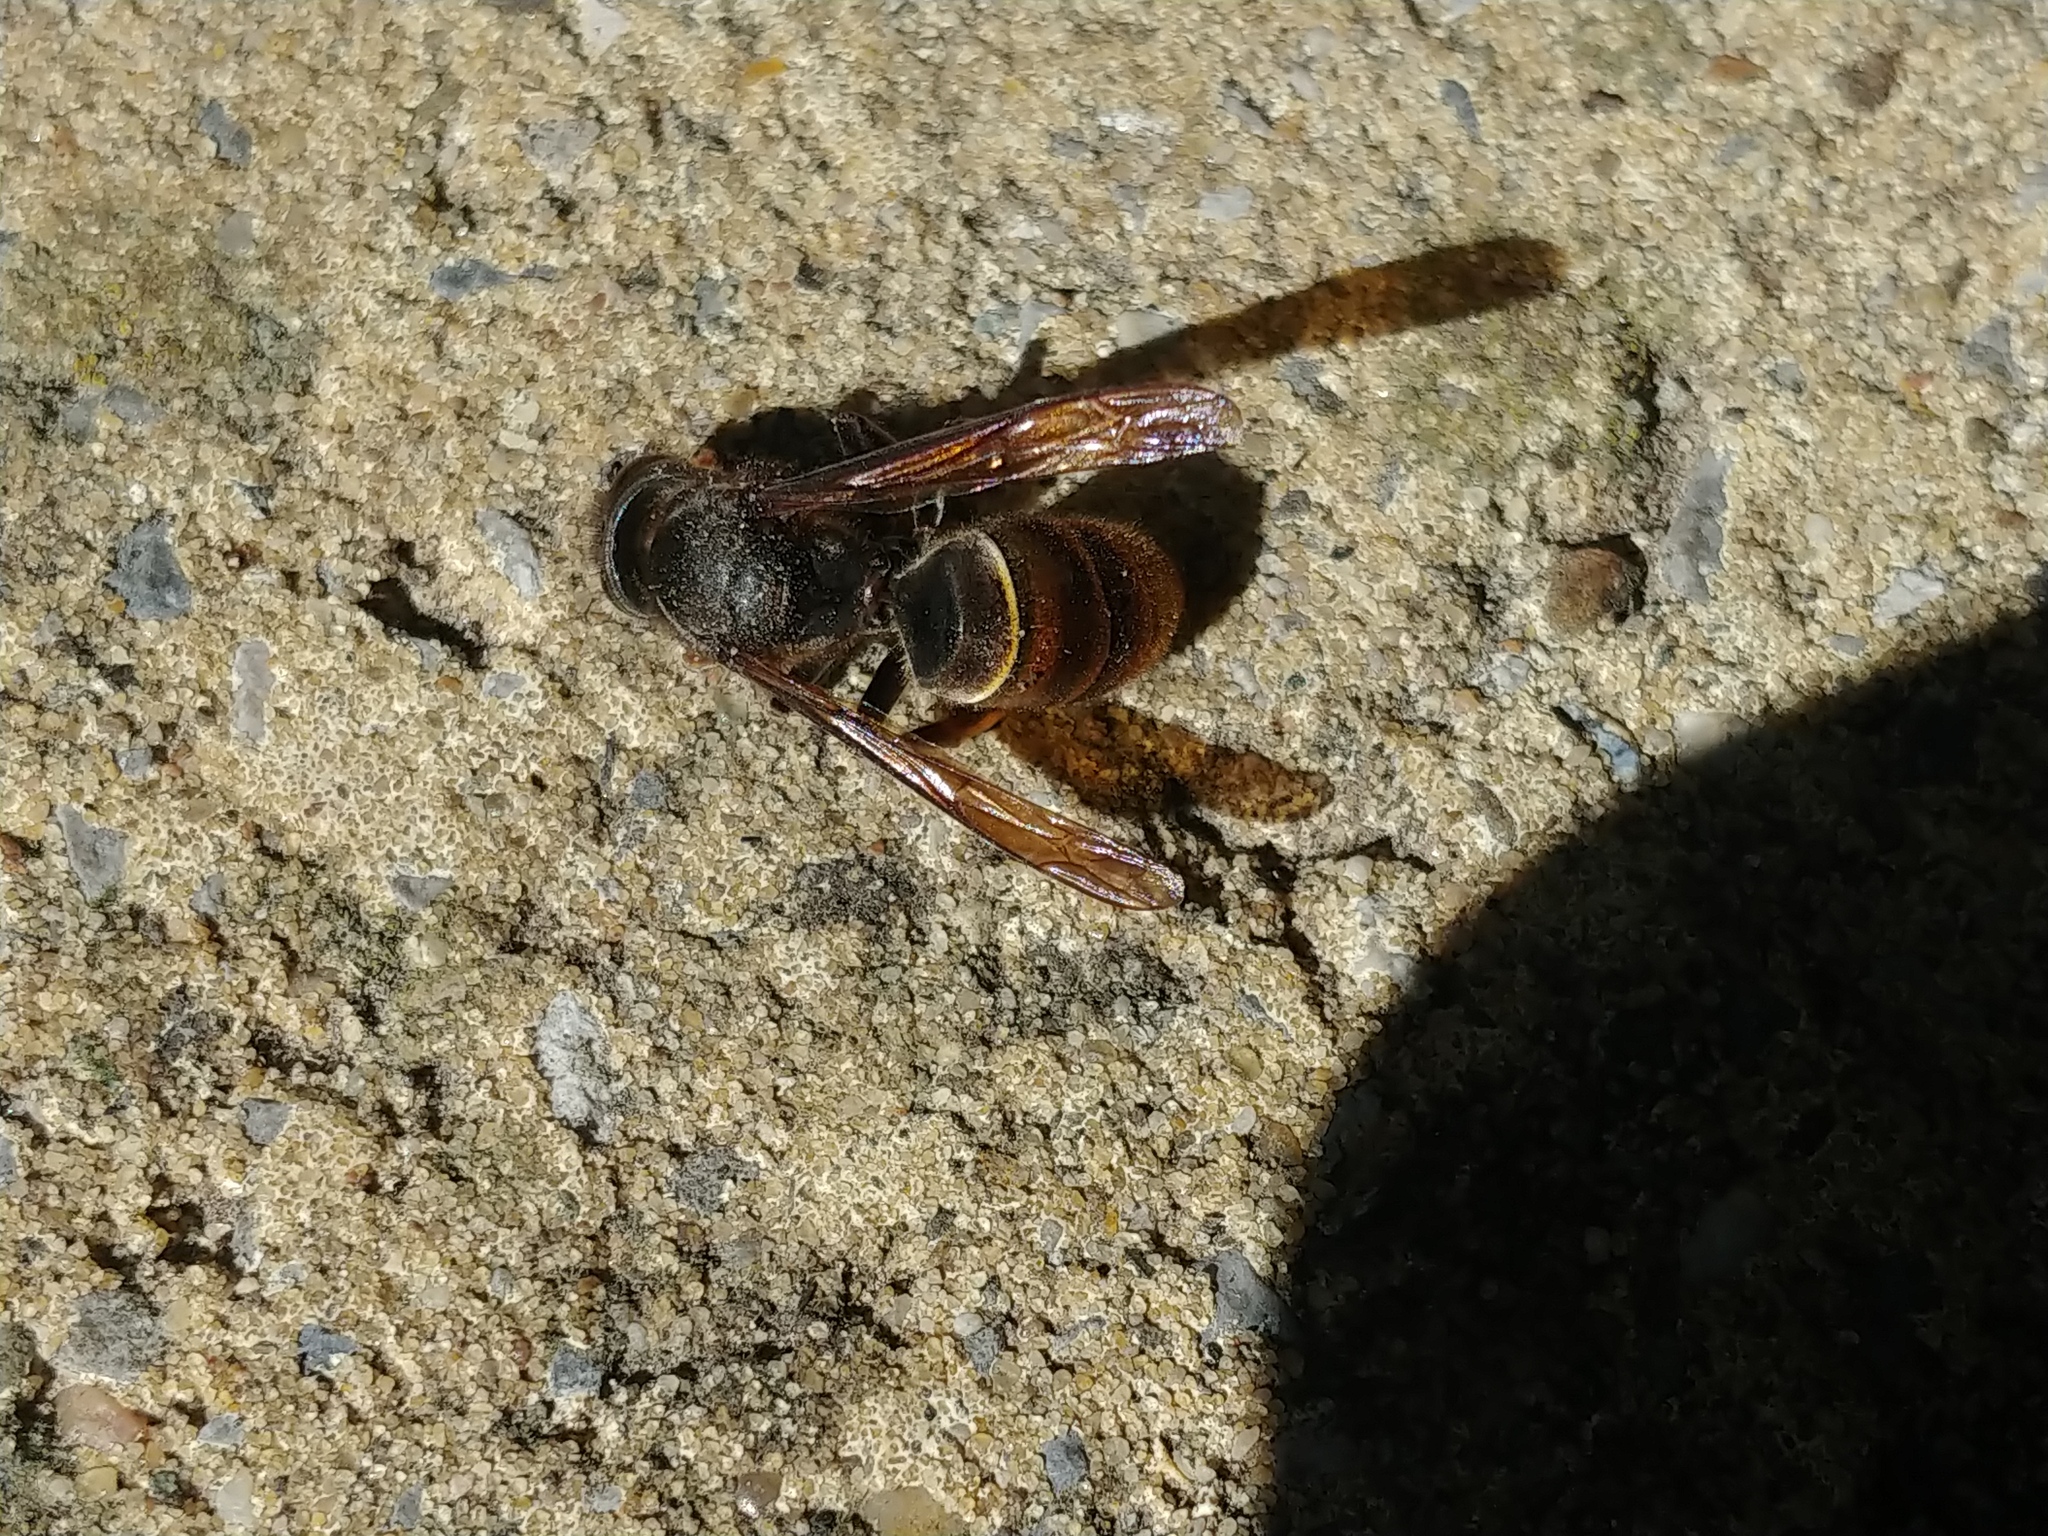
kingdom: Animalia
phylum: Arthropoda
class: Insecta
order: Hymenoptera
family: Vespidae
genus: Vespa
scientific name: Vespa velutina
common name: Asian hornet
